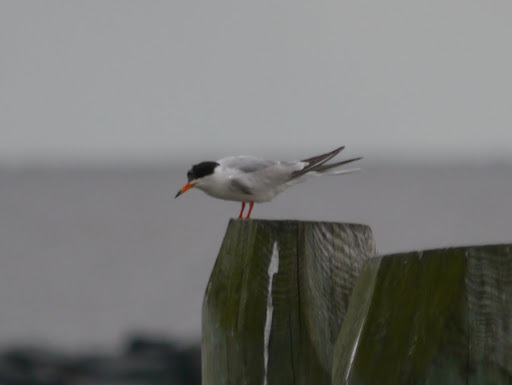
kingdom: Animalia
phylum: Chordata
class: Aves
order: Charadriiformes
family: Laridae
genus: Sterna
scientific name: Sterna forsteri
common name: Forster's tern
